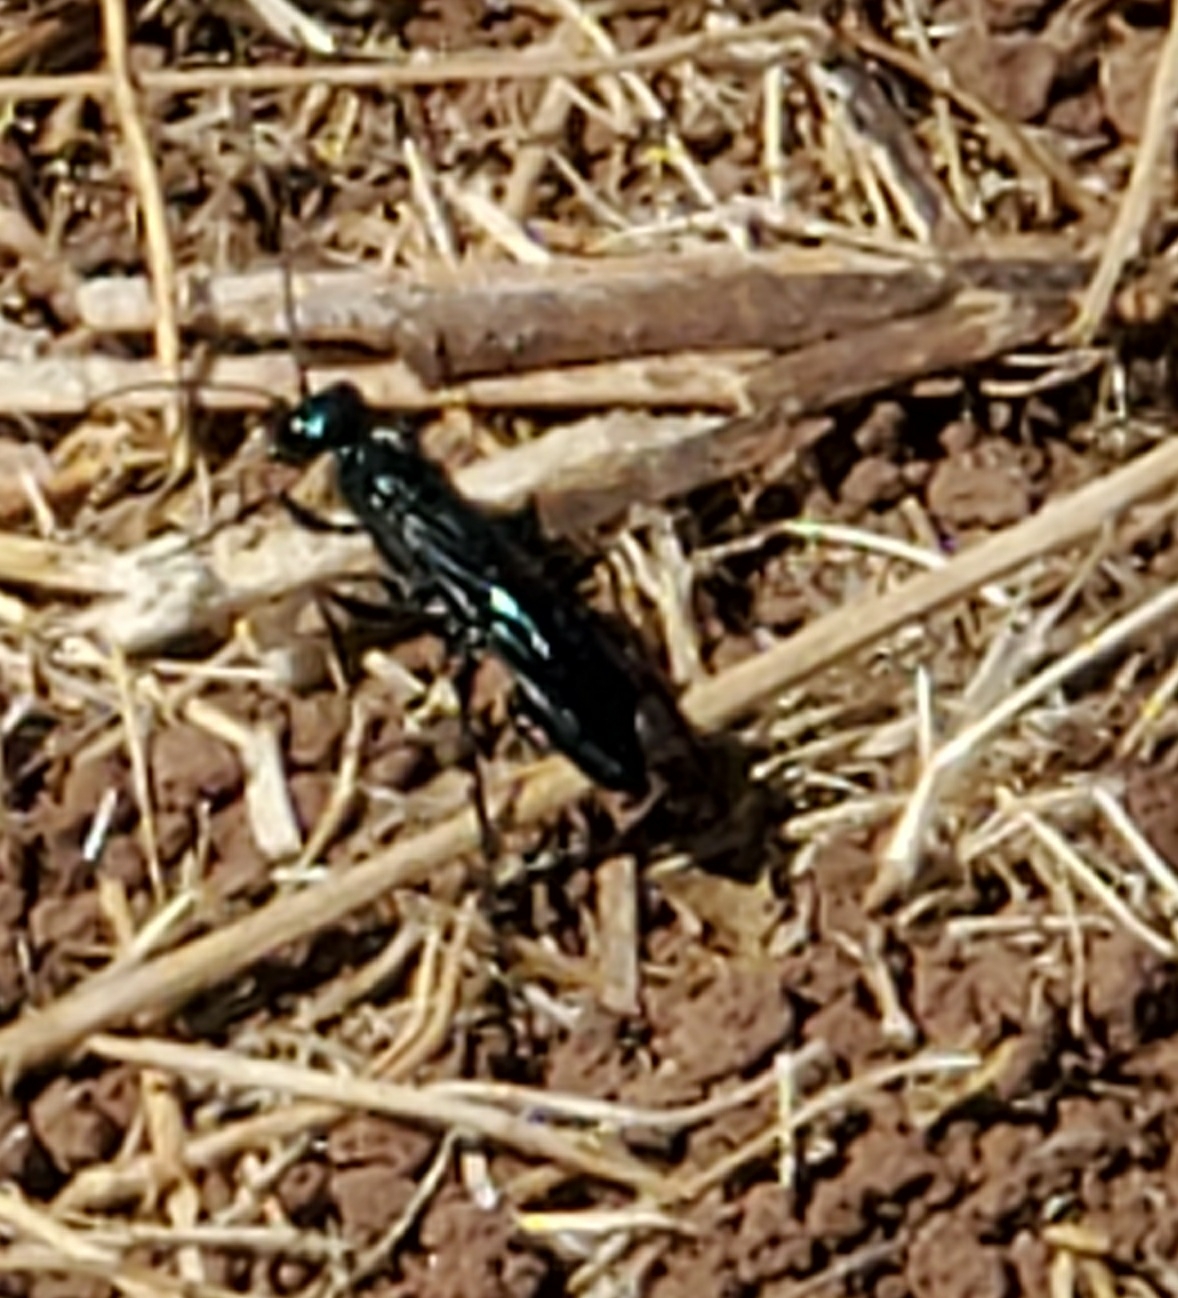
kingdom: Animalia
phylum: Arthropoda
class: Insecta
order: Hymenoptera
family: Sphecidae
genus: Chlorion
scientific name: Chlorion
